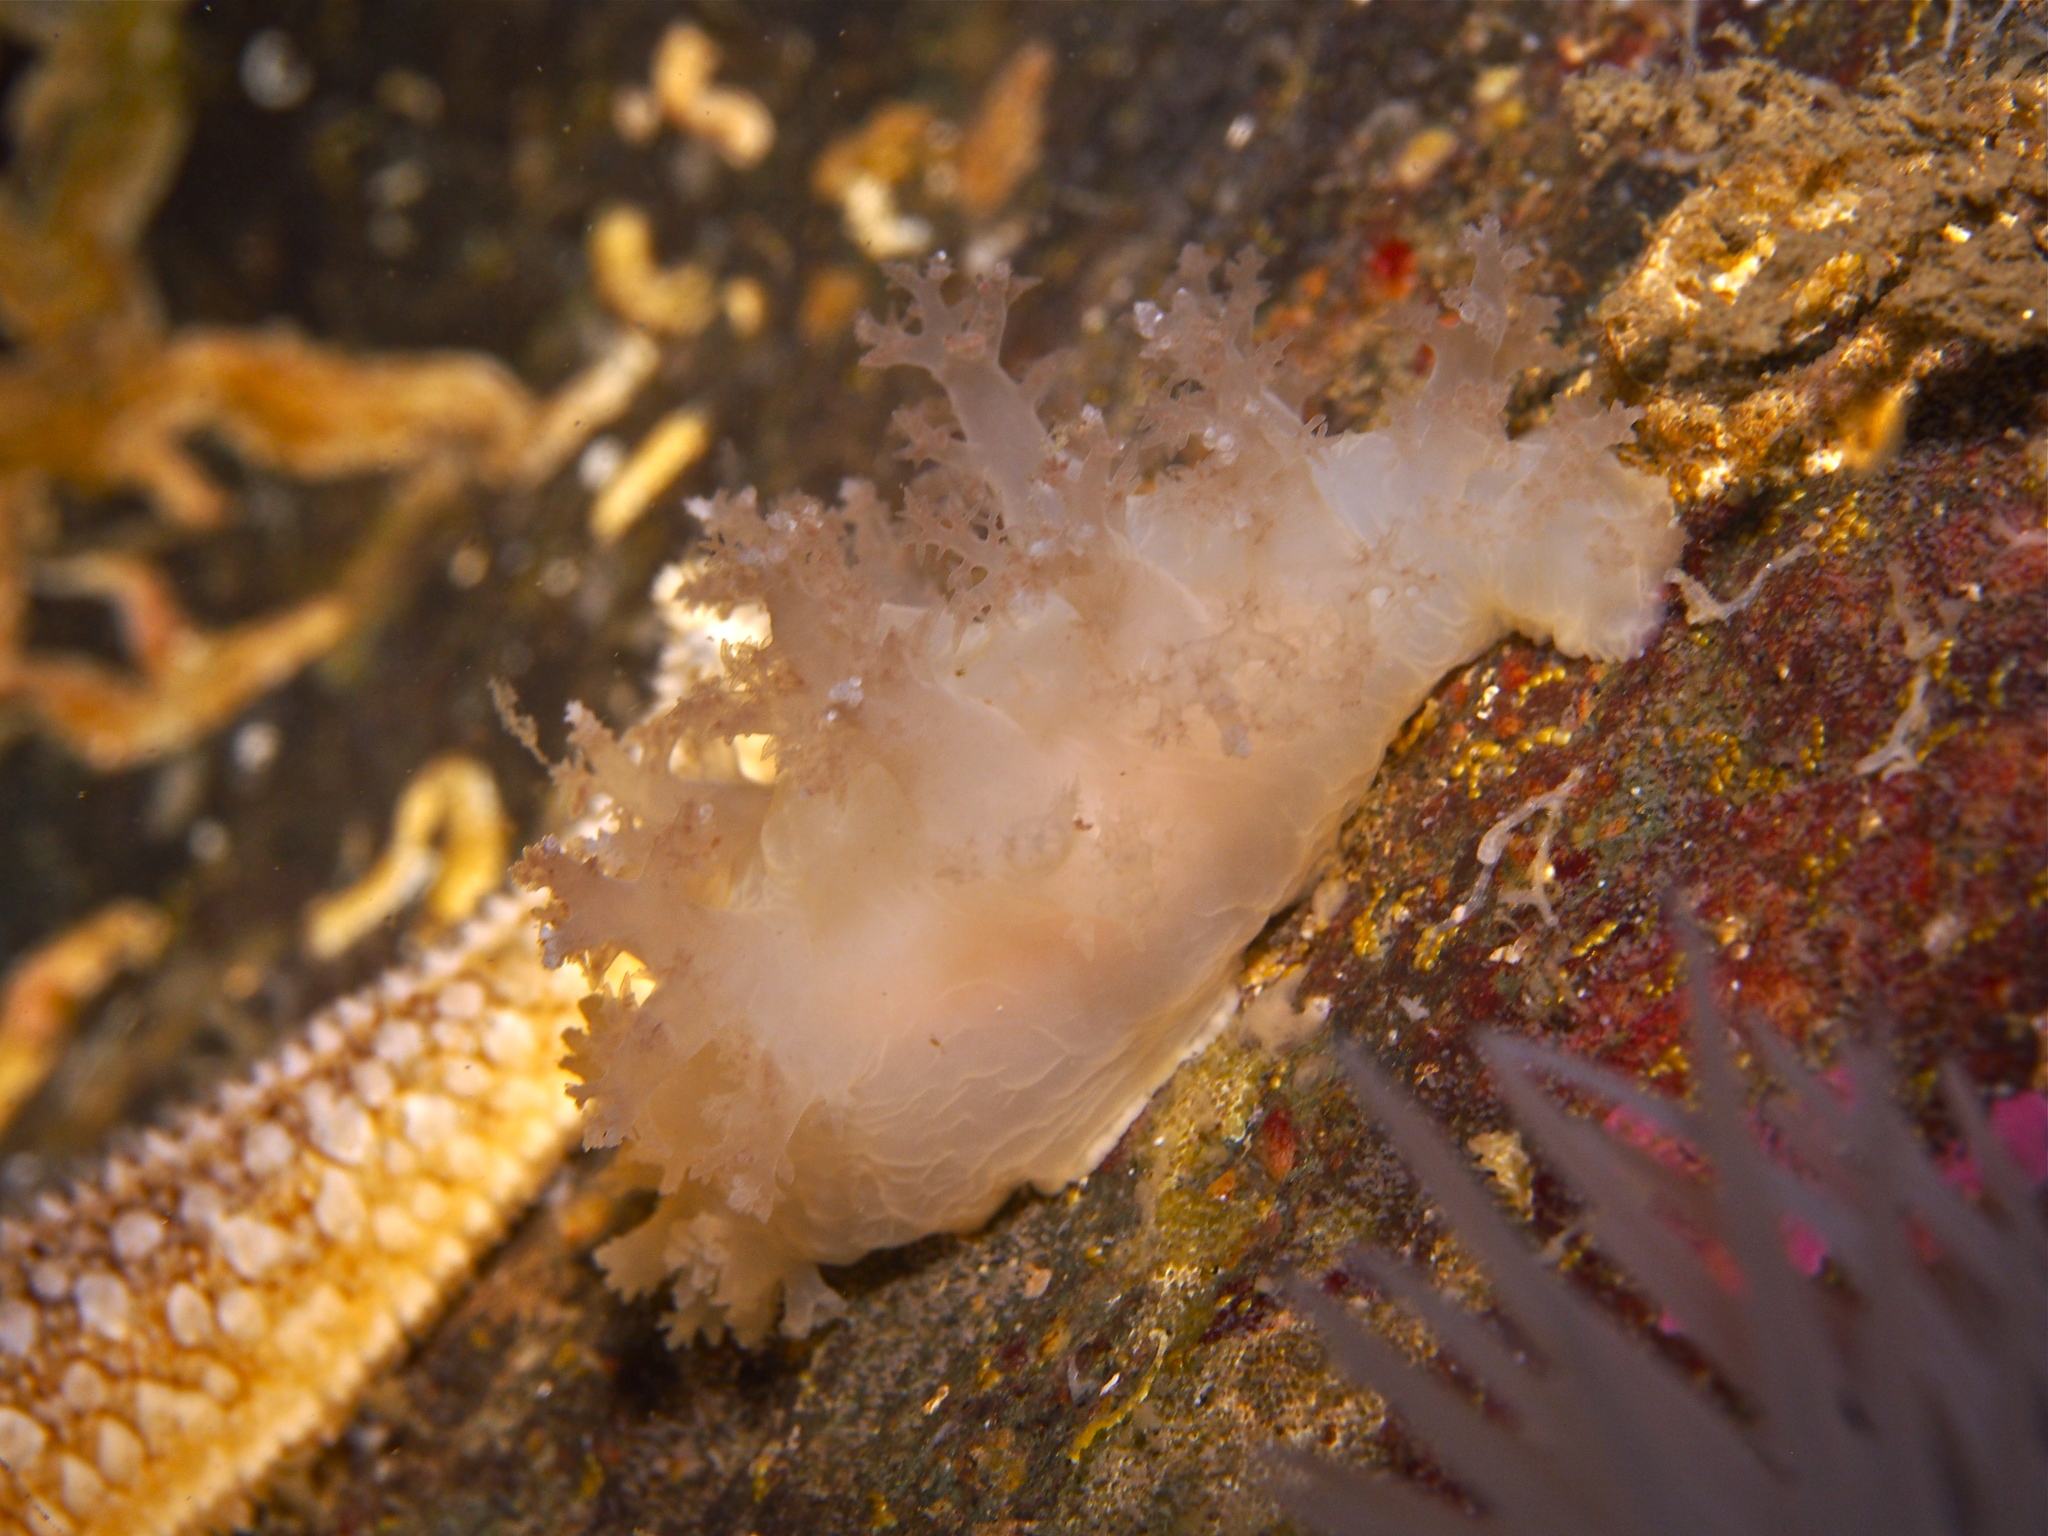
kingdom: Animalia
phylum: Mollusca
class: Gastropoda
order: Nudibranchia
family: Dendronotidae
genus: Dendronotus
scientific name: Dendronotus lacteus
